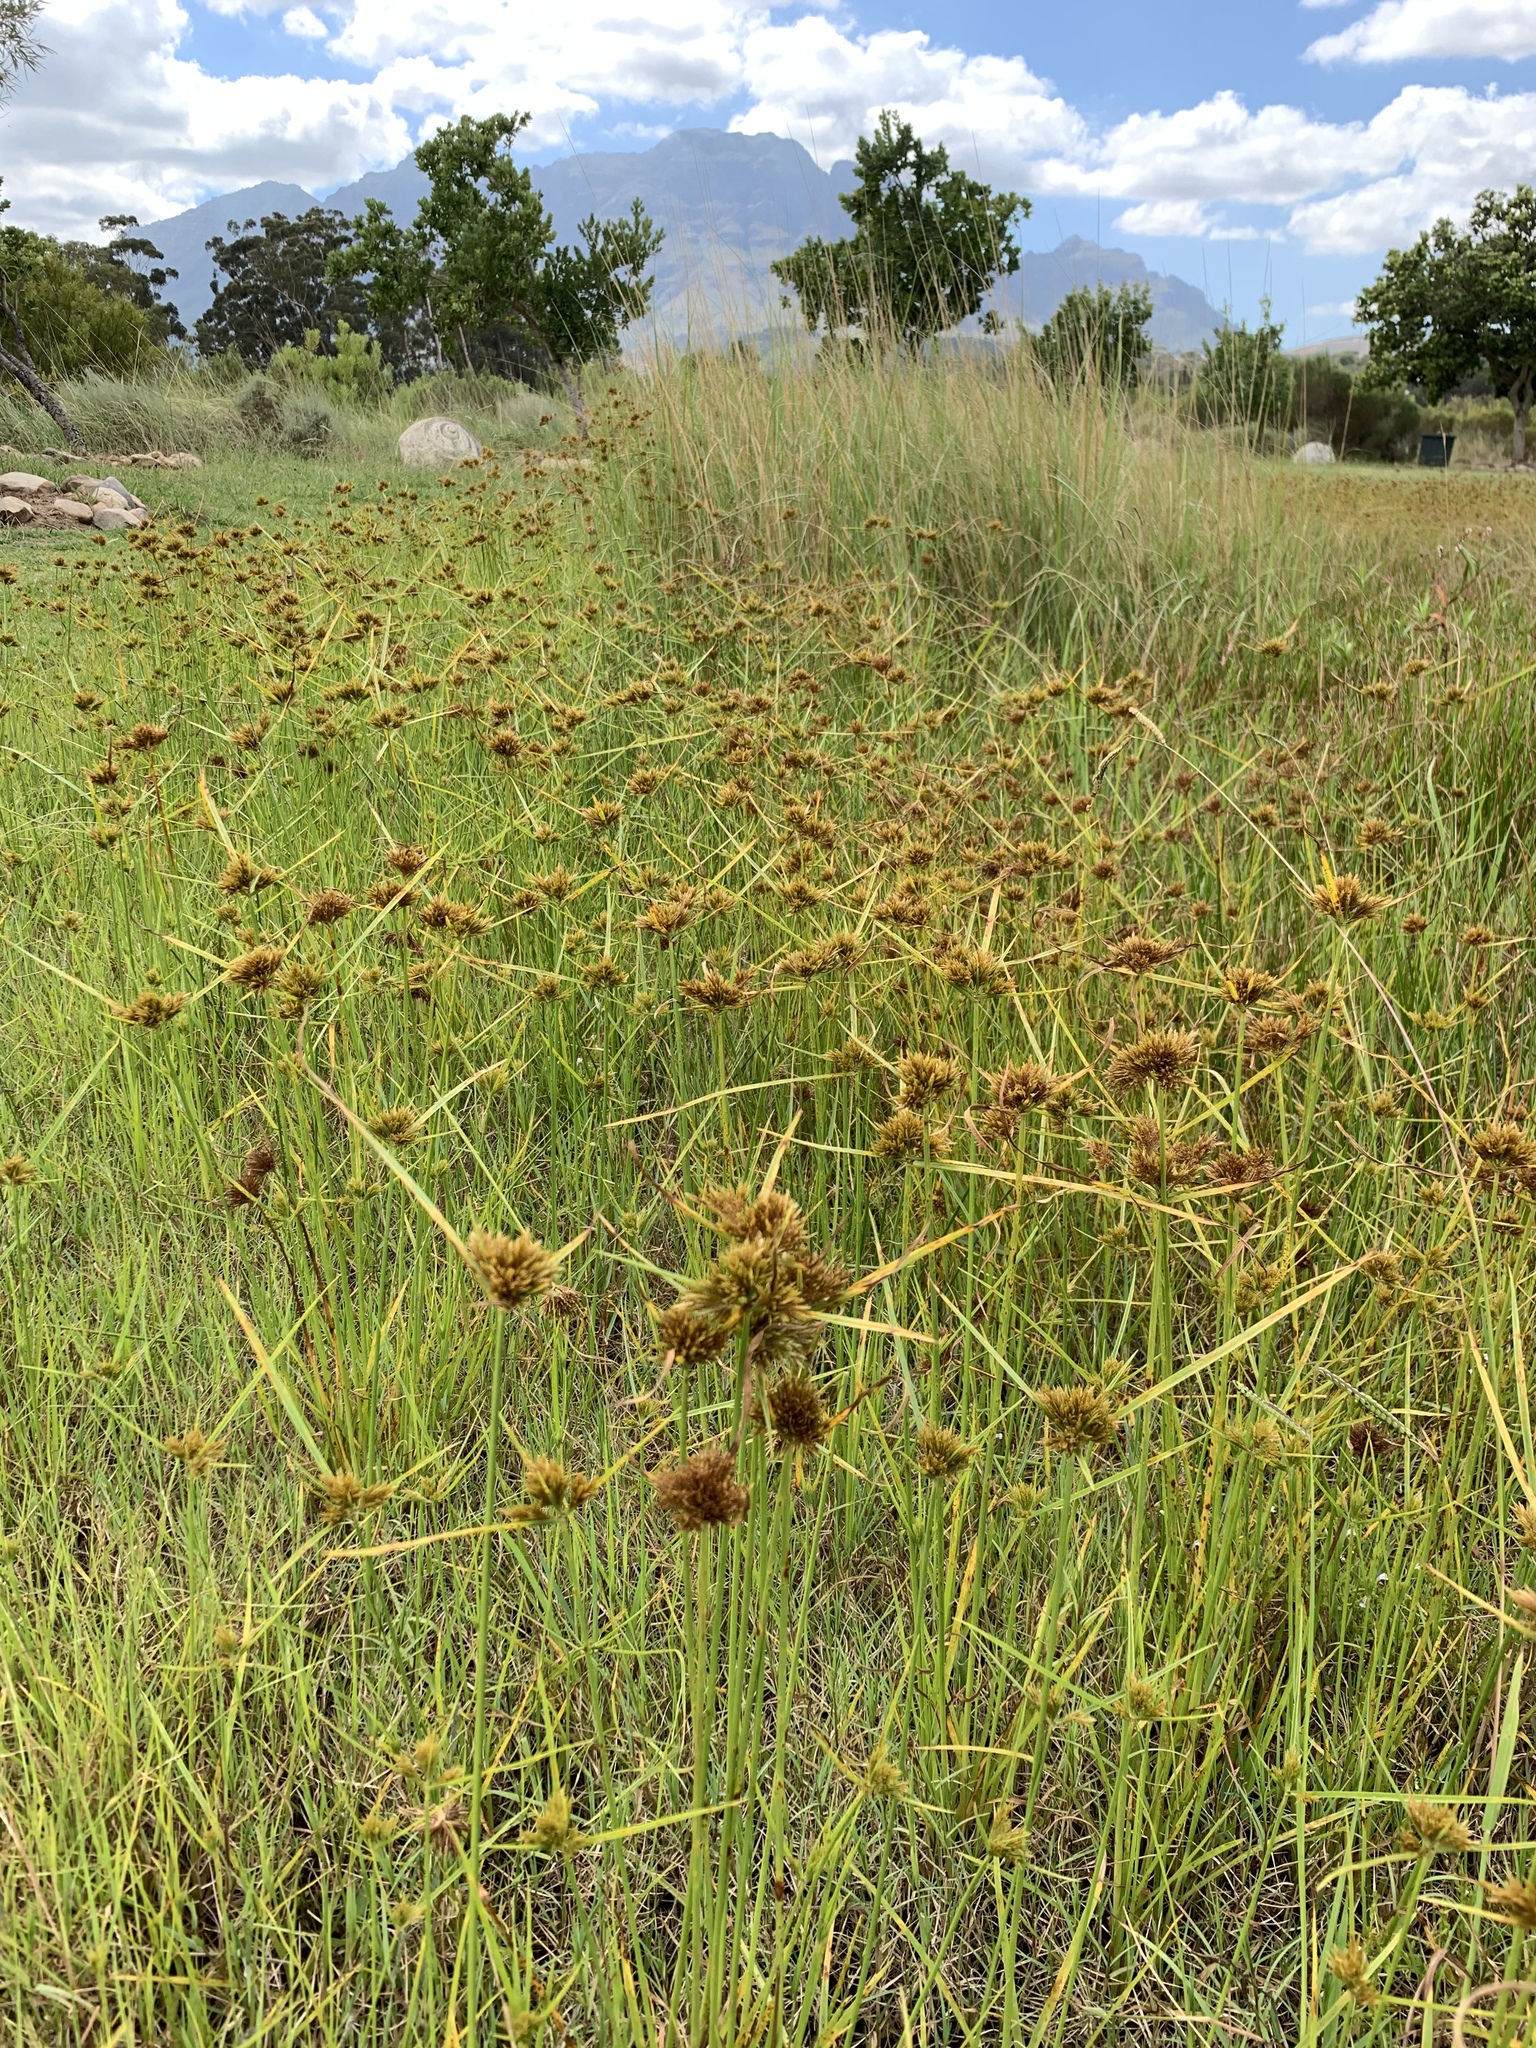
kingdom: Plantae
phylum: Tracheophyta
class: Liliopsida
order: Poales
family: Cyperaceae
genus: Cyperus
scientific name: Cyperus polystachyos
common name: Bunchy flat sedge
